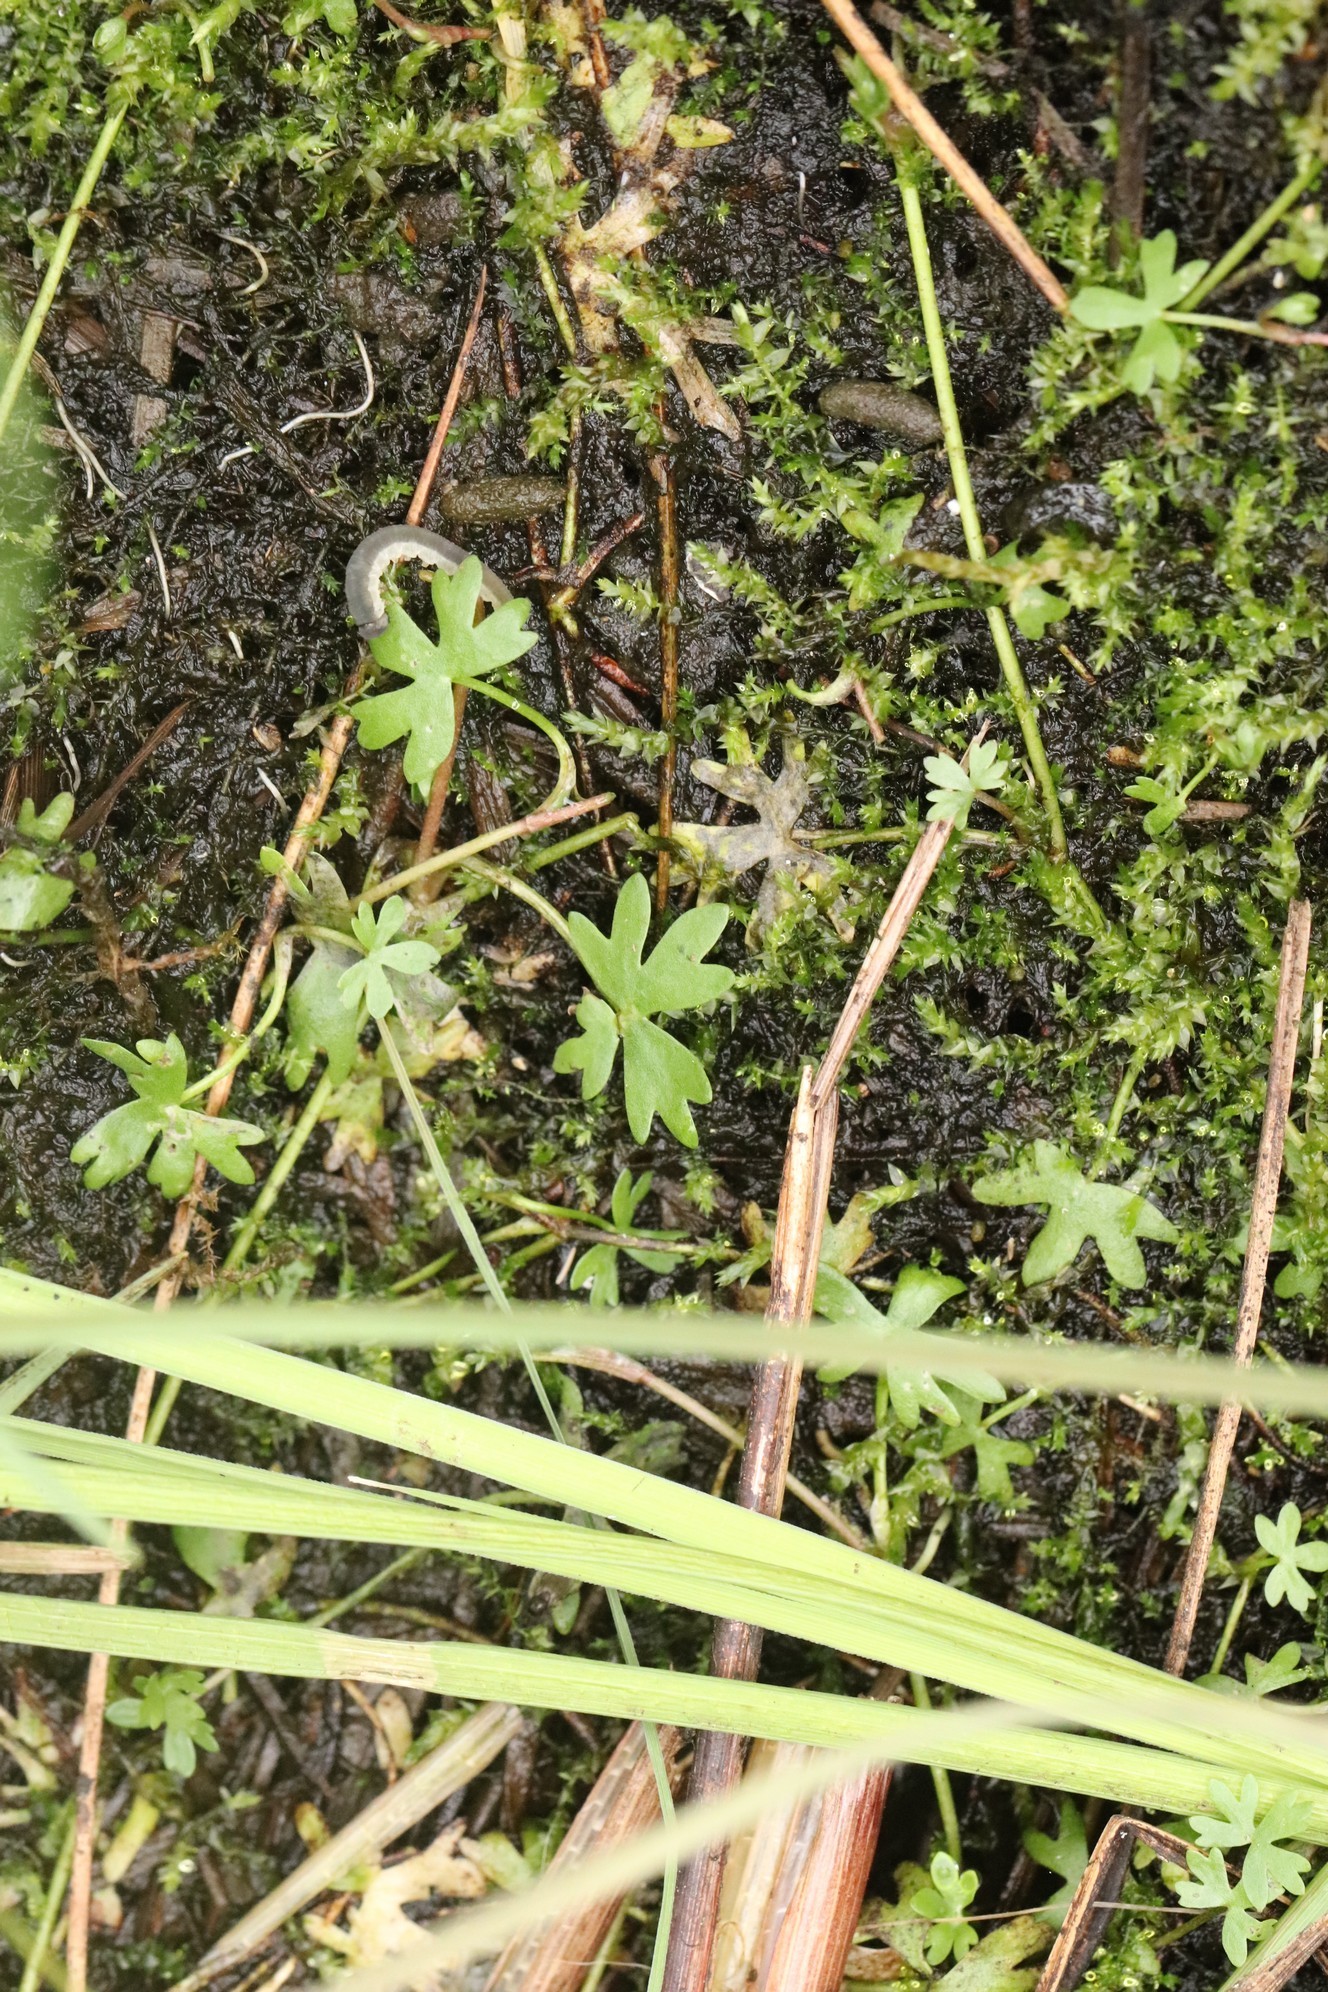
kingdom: Plantae
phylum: Tracheophyta
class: Magnoliopsida
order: Ranunculales
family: Ranunculaceae
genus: Ranunculus
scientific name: Ranunculus gmelinii
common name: Gmelin's buttercup
